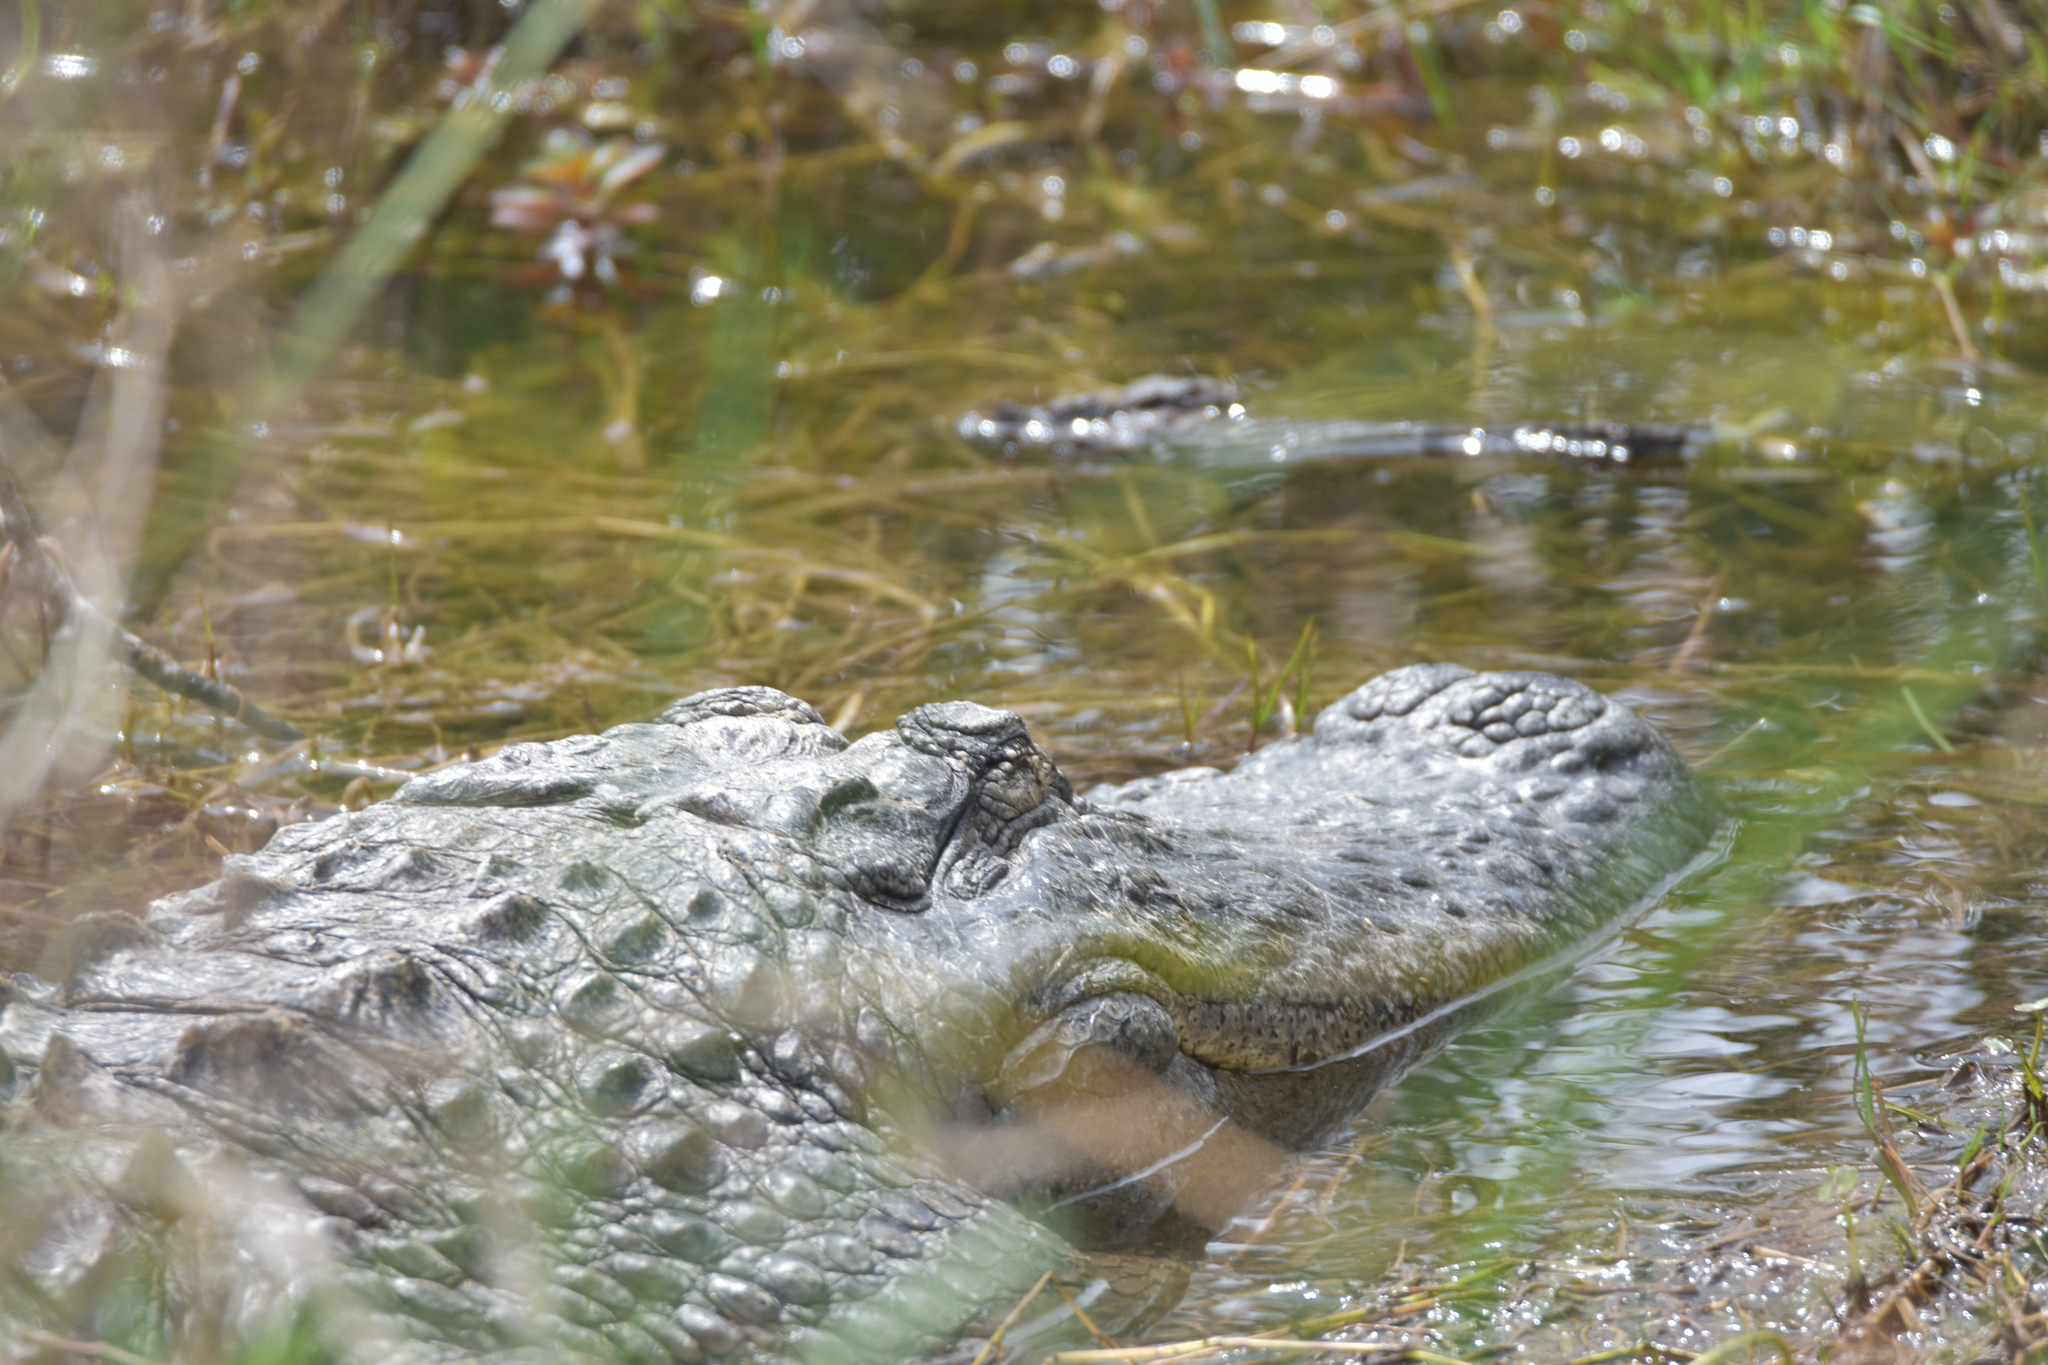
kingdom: Animalia
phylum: Chordata
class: Crocodylia
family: Alligatoridae
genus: Alligator
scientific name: Alligator mississippiensis
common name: American alligator
